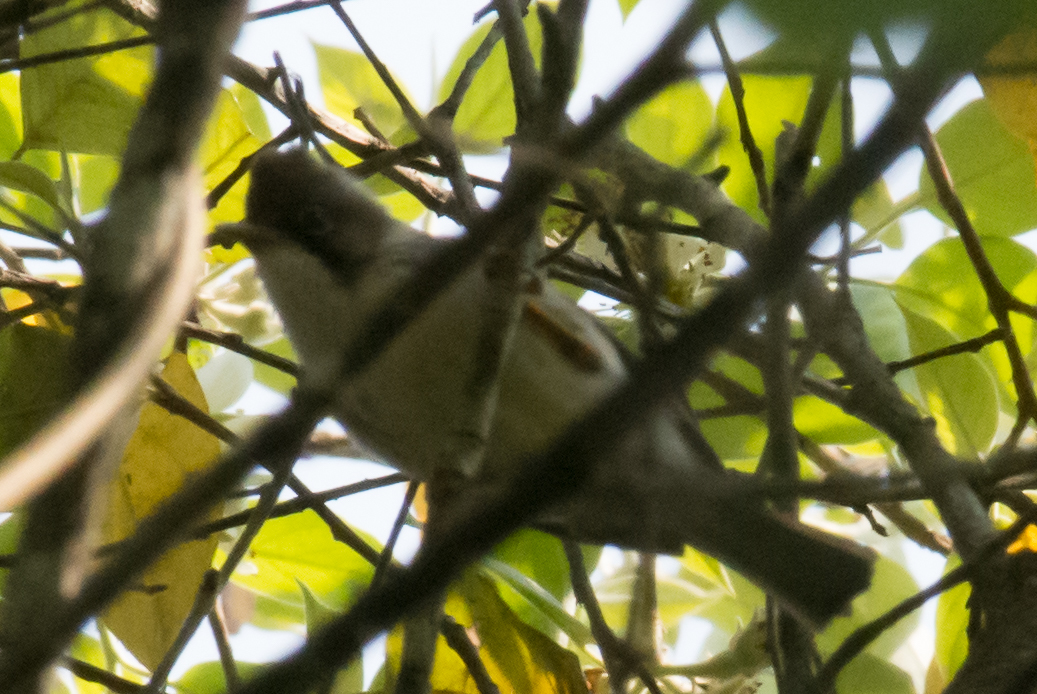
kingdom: Animalia
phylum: Chordata
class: Aves
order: Passeriformes
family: Zosteropidae
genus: Yuhina
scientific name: Yuhina humilis
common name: Burmese yuhina
